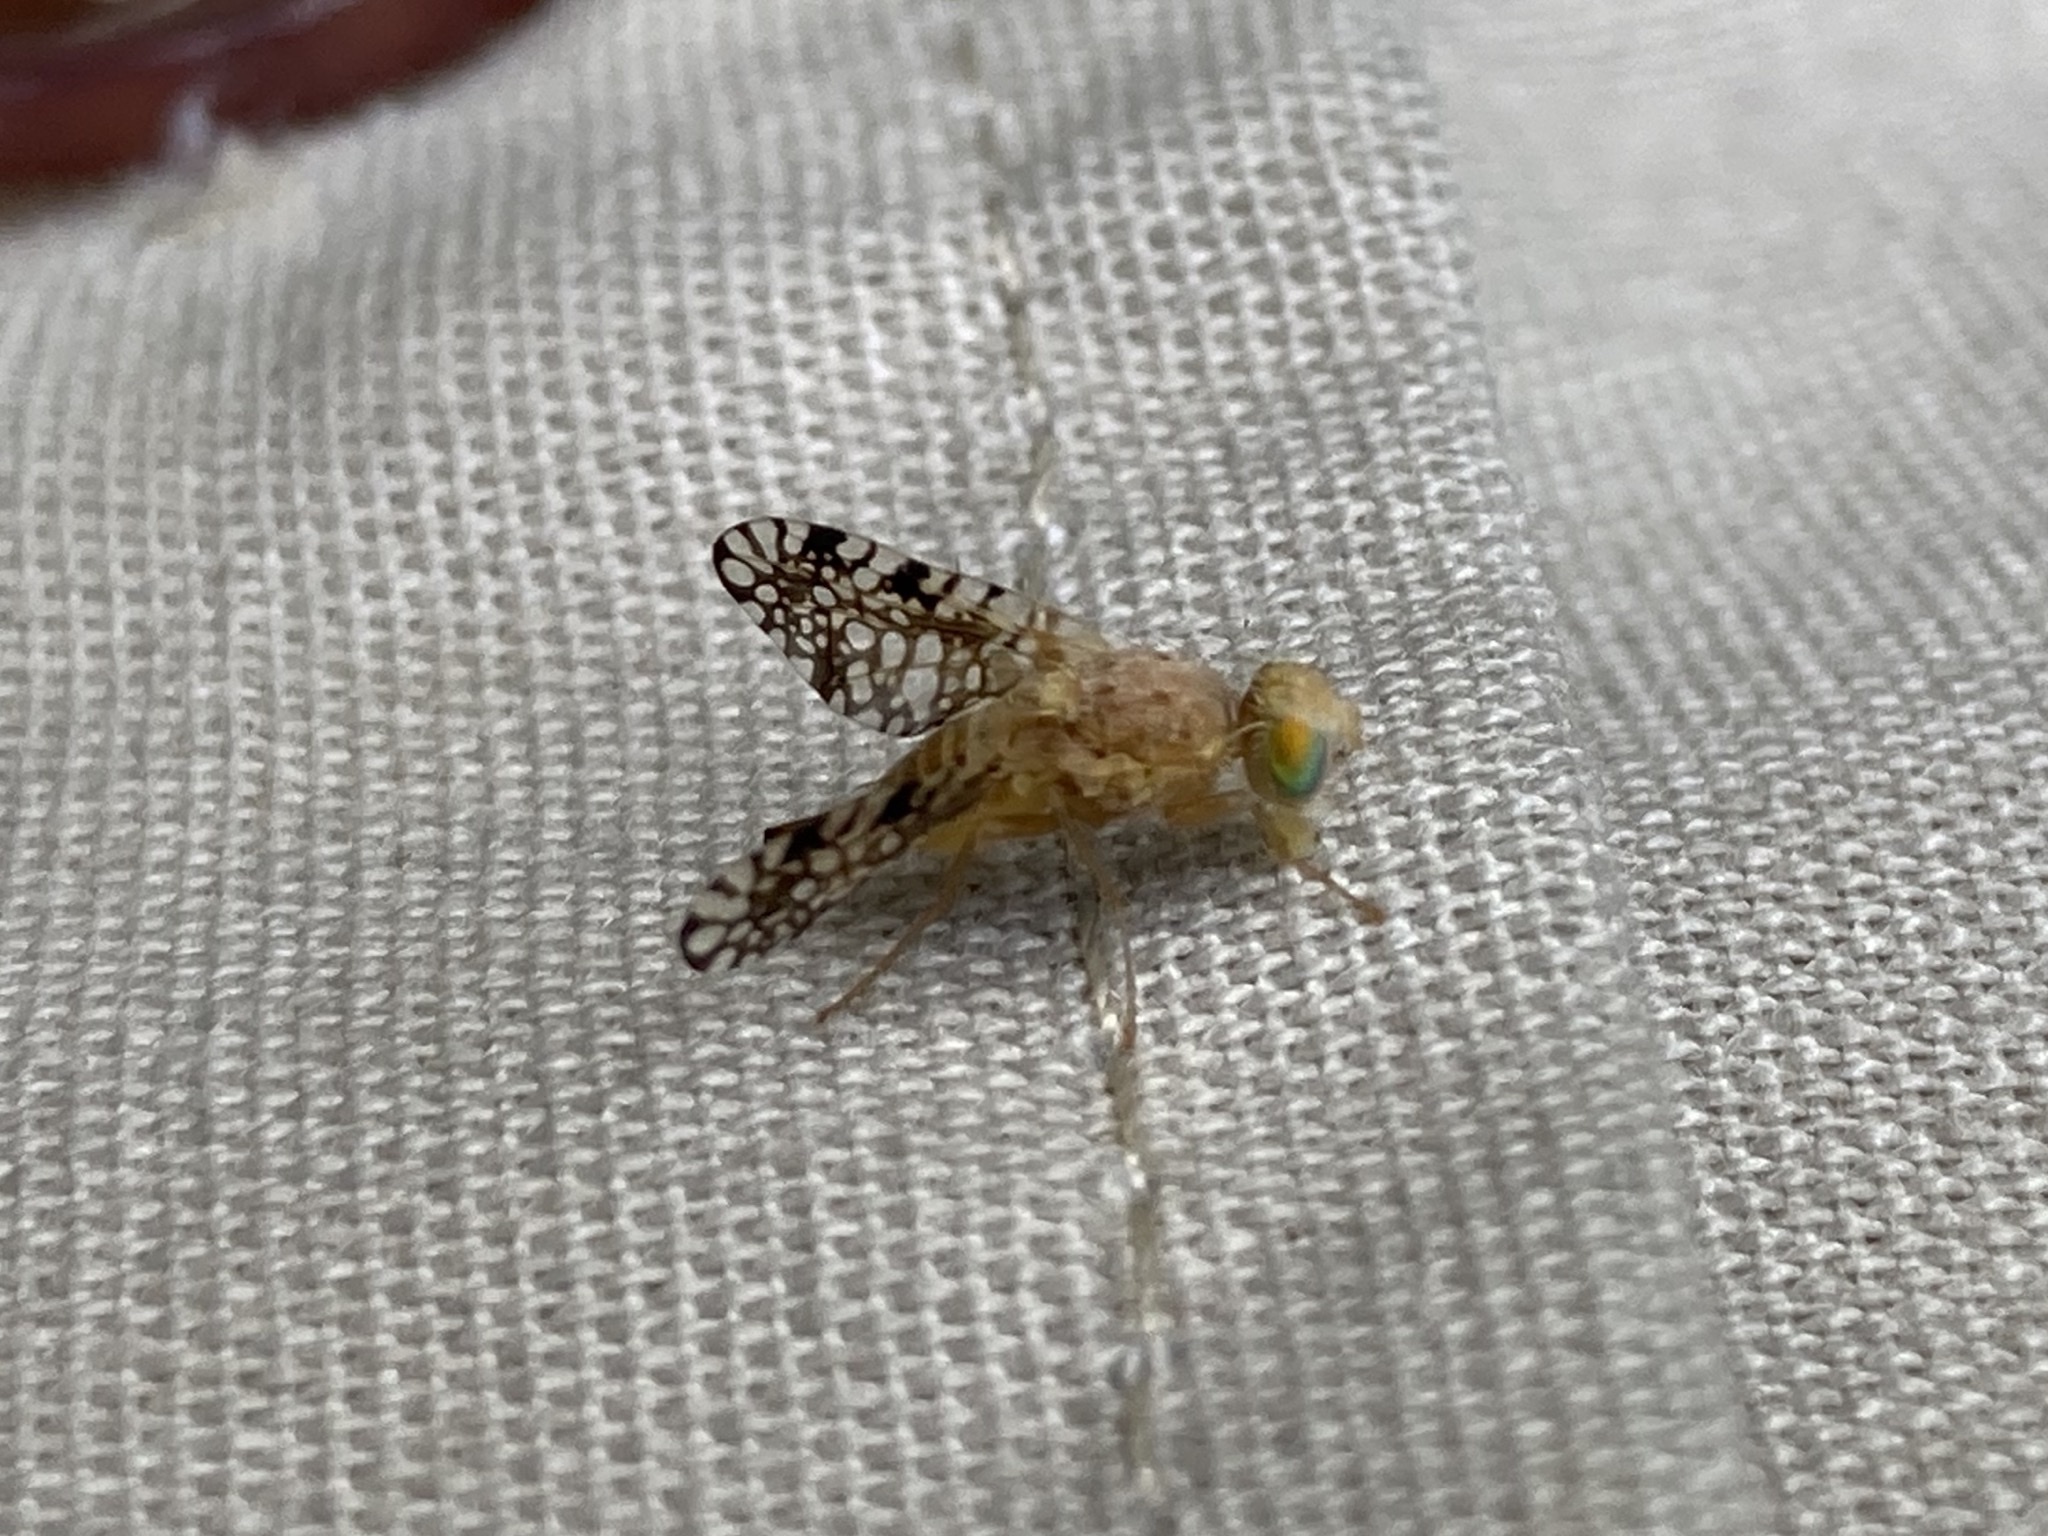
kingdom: Animalia
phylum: Arthropoda
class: Insecta
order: Diptera
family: Tephritidae
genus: Euaresta
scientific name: Euaresta aequalis
